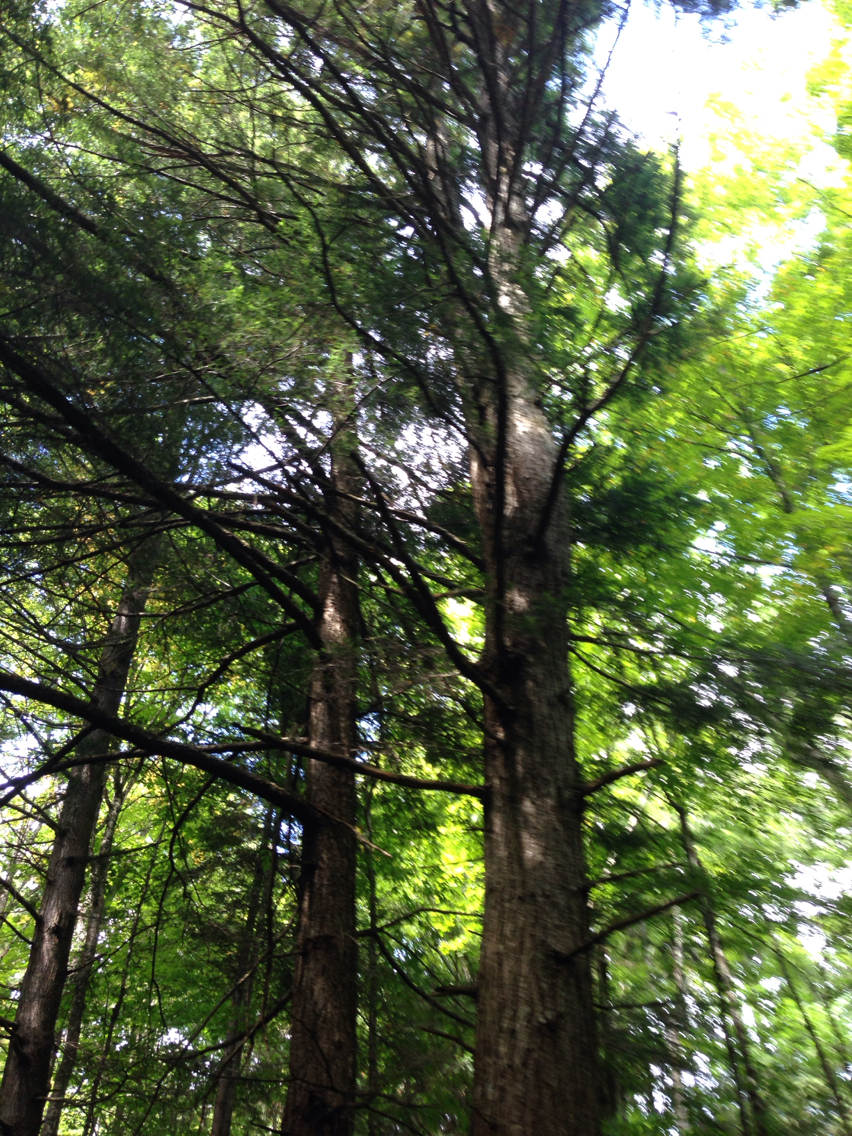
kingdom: Plantae
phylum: Tracheophyta
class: Pinopsida
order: Pinales
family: Pinaceae
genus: Tsuga
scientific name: Tsuga canadensis
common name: Eastern hemlock
